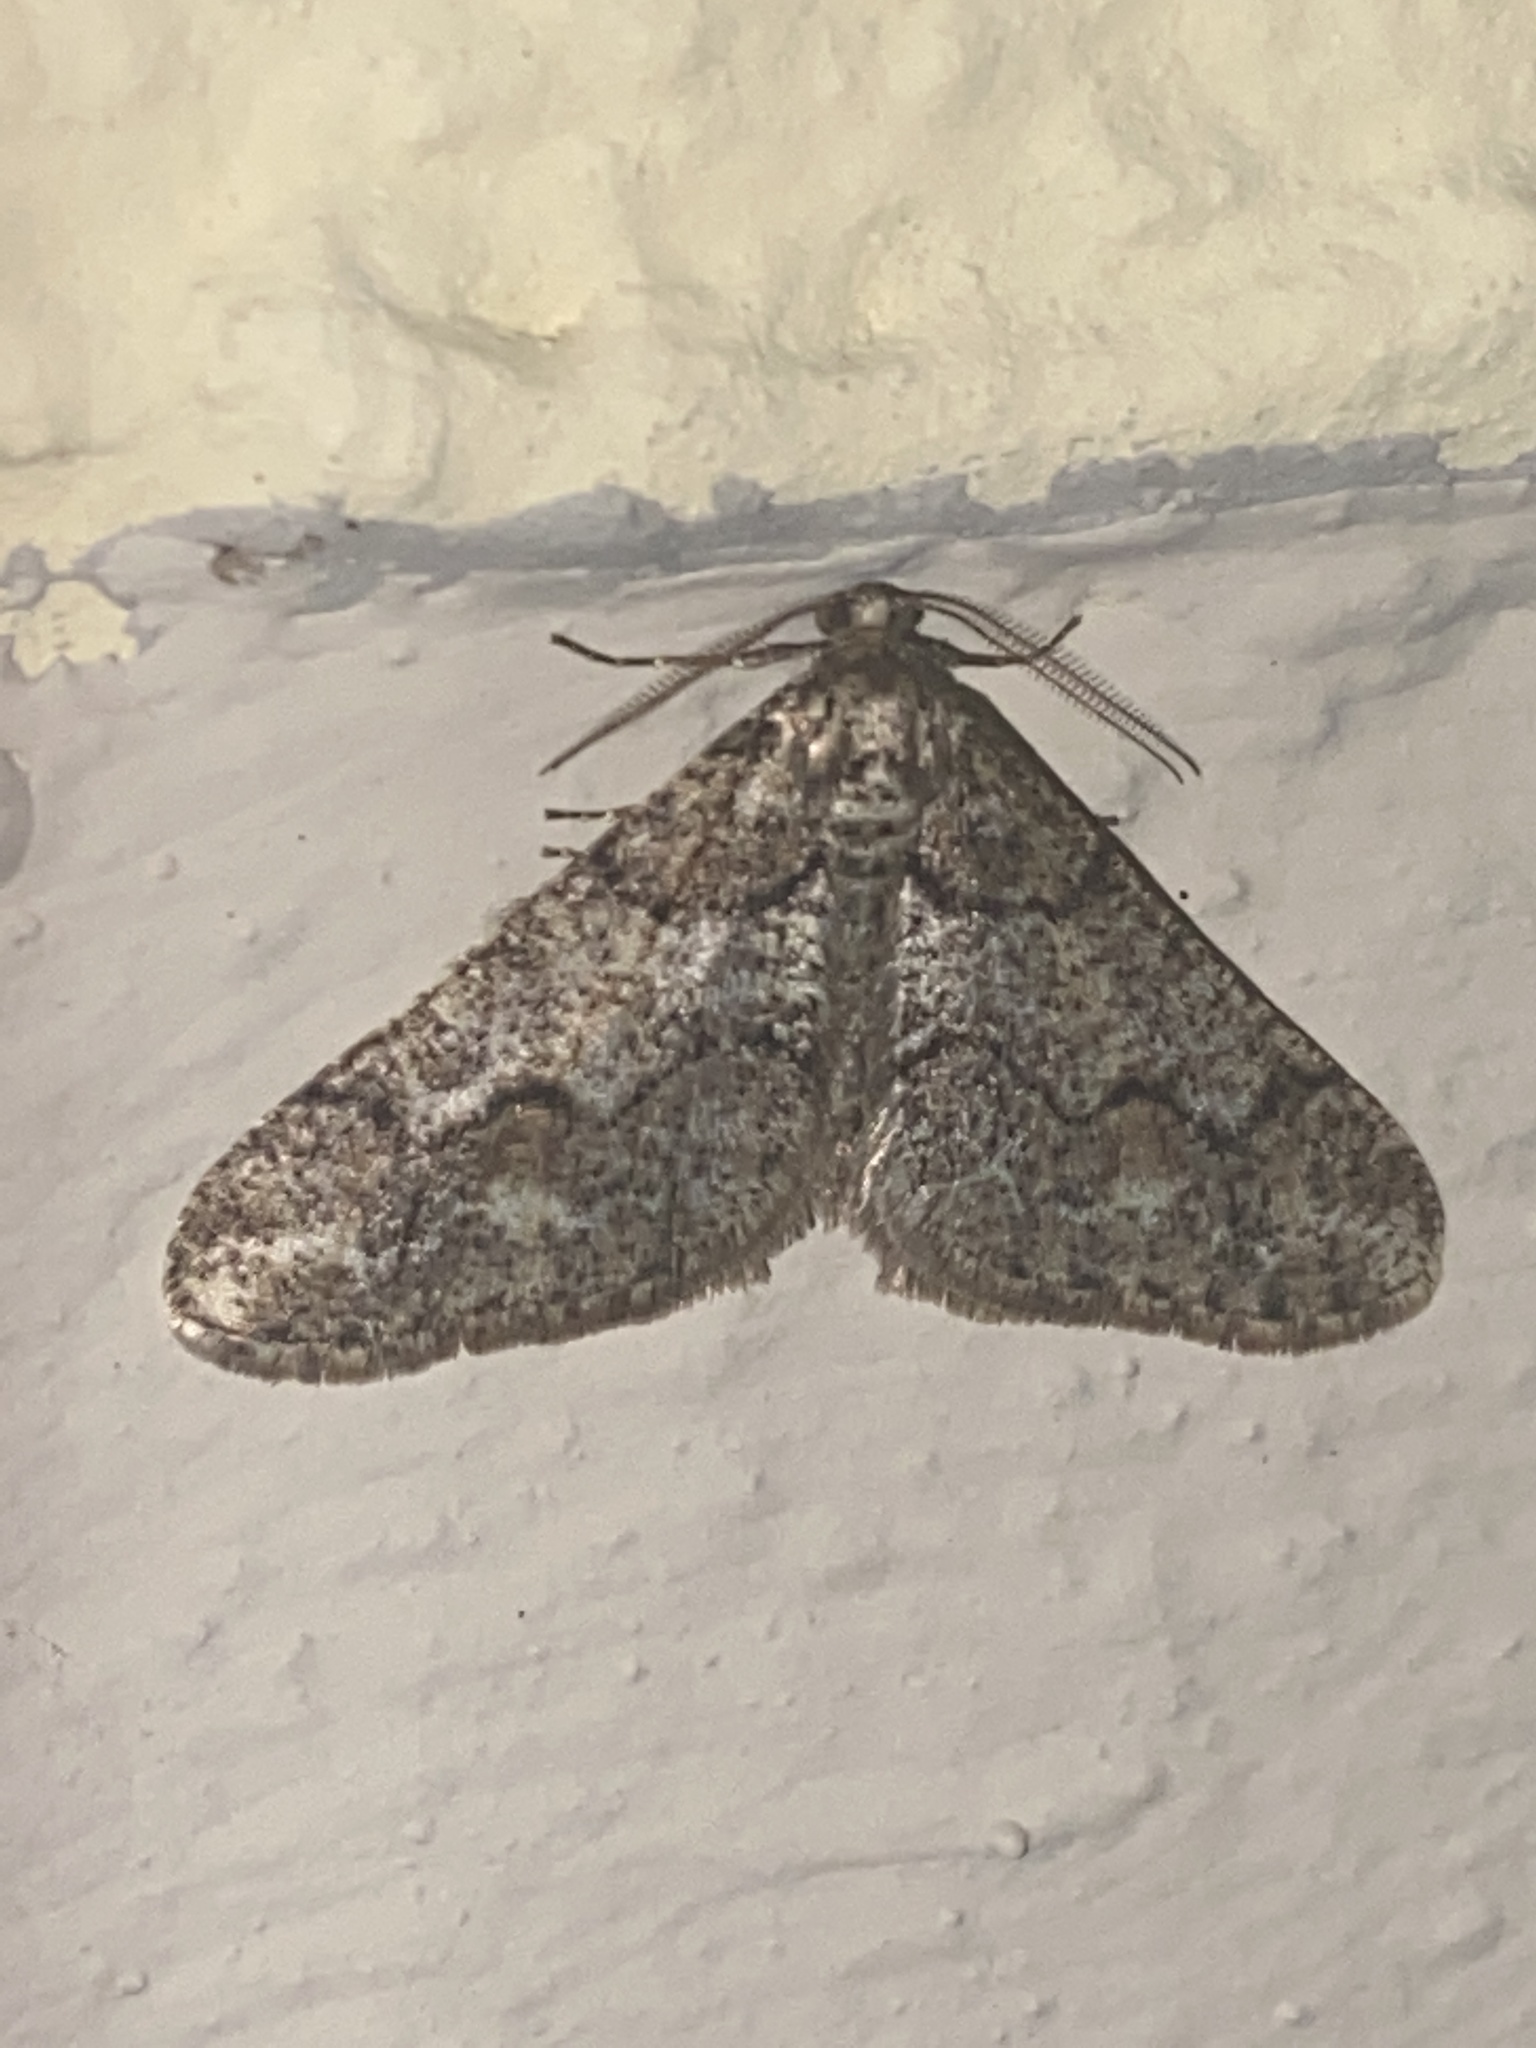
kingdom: Animalia
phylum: Arthropoda
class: Insecta
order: Lepidoptera
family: Geometridae
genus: Agriopis
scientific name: Agriopis leucophaearia
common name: Spring usher
